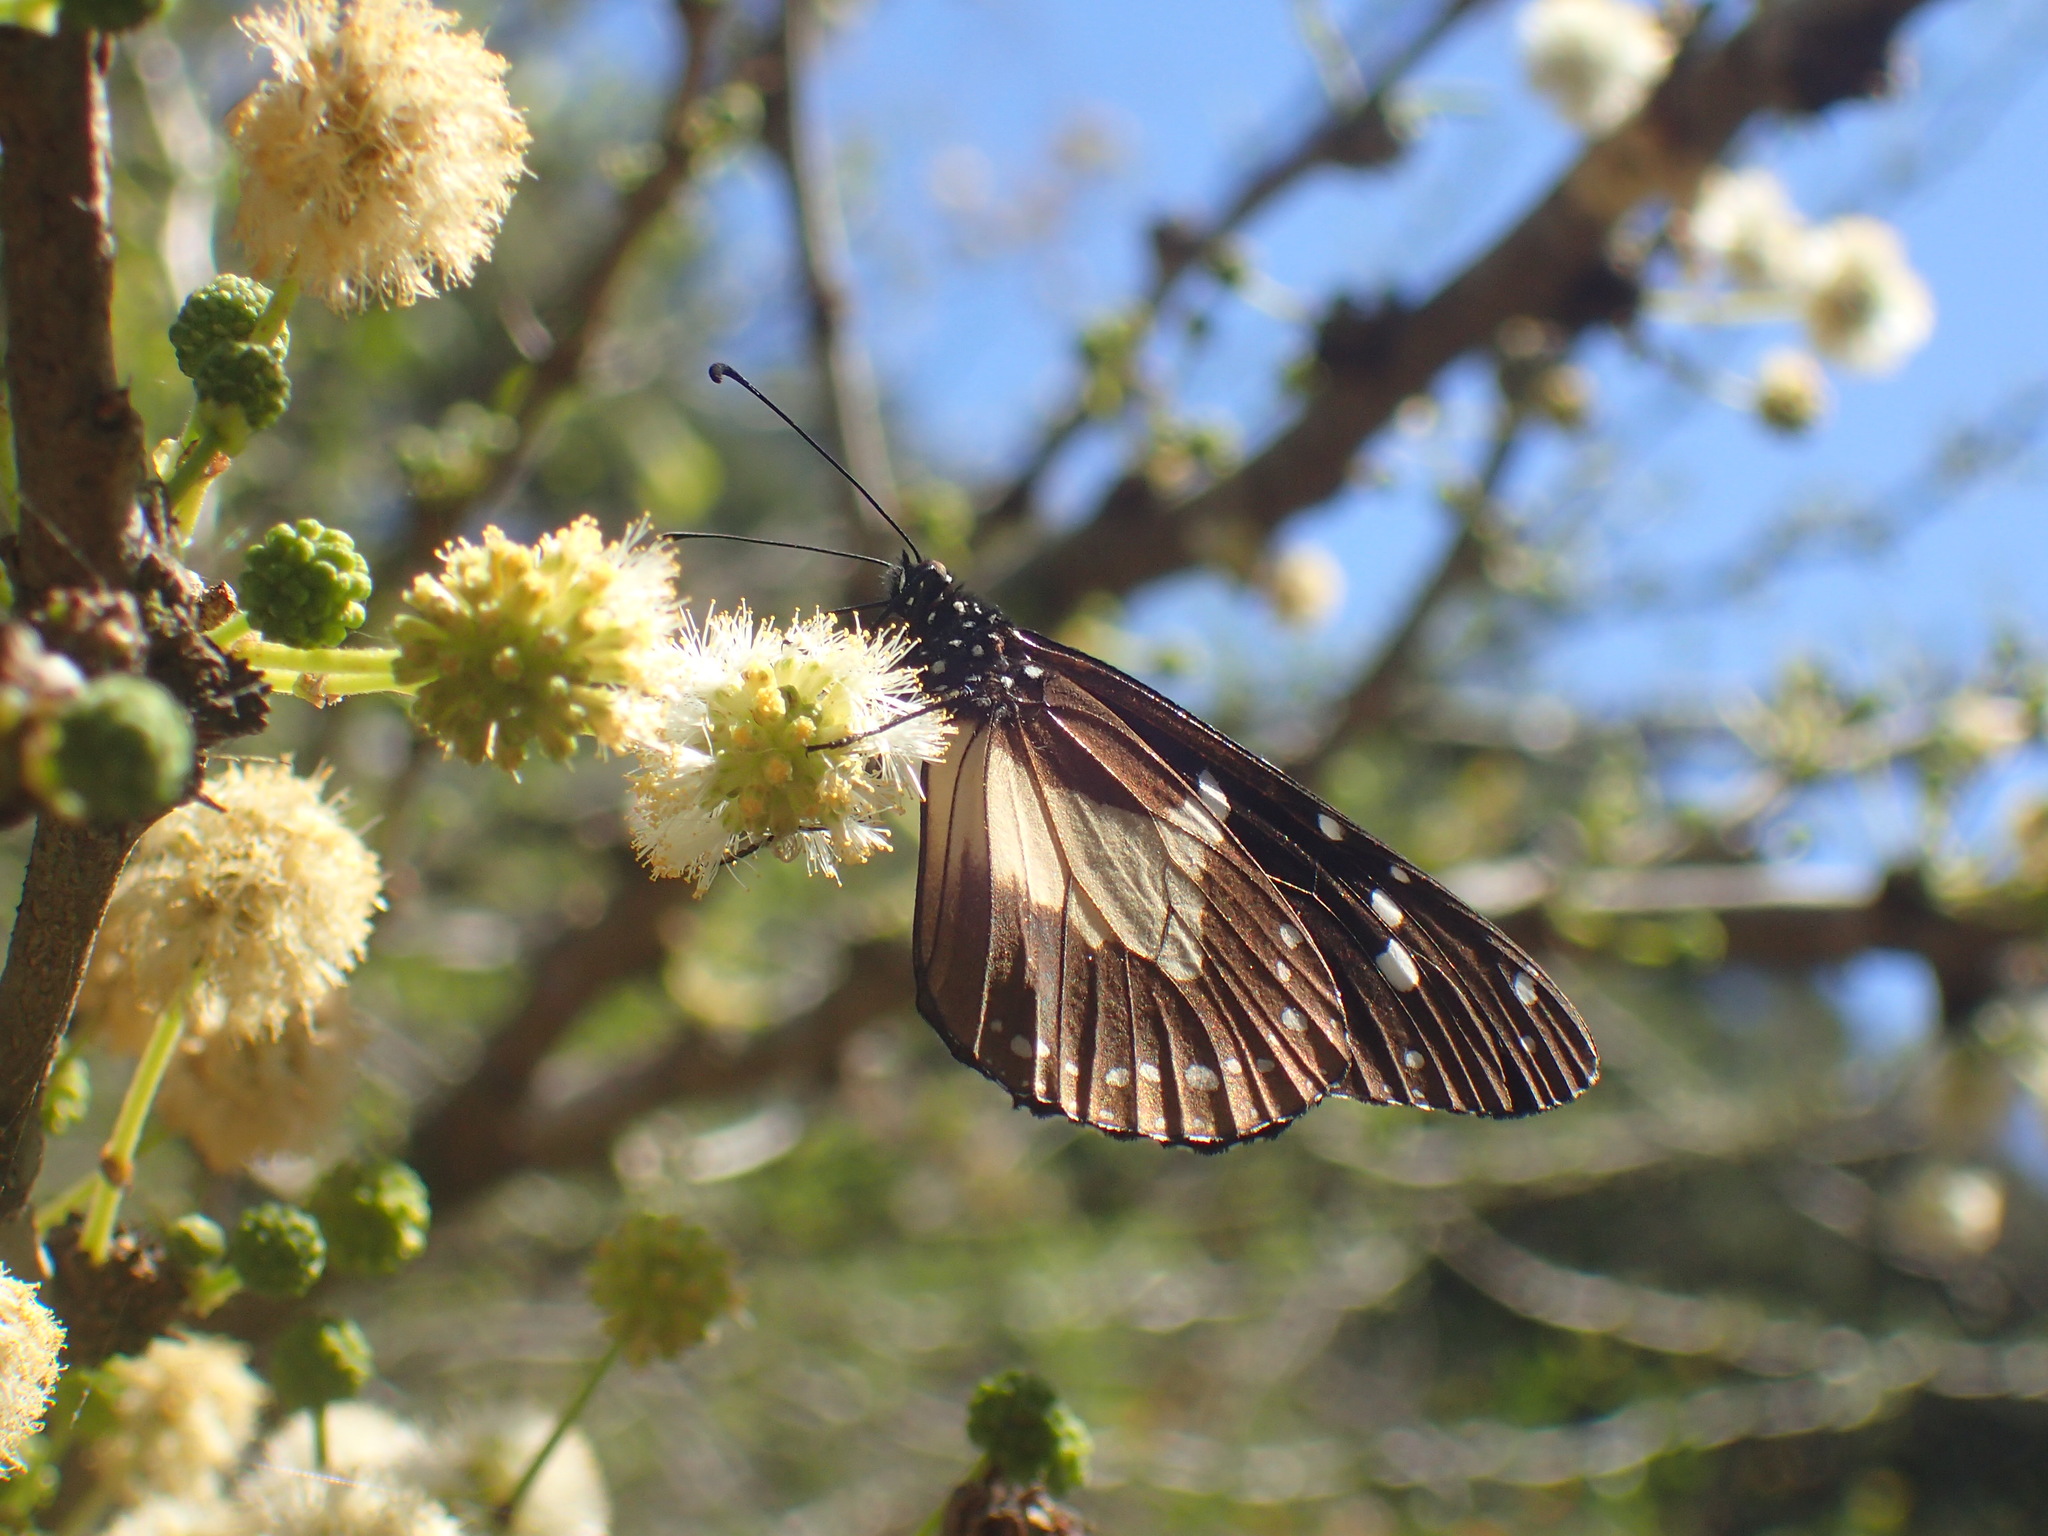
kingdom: Animalia
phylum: Arthropoda
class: Insecta
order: Lepidoptera
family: Nymphalidae
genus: Amauris
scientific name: Amauris albimaculata
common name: Layman
